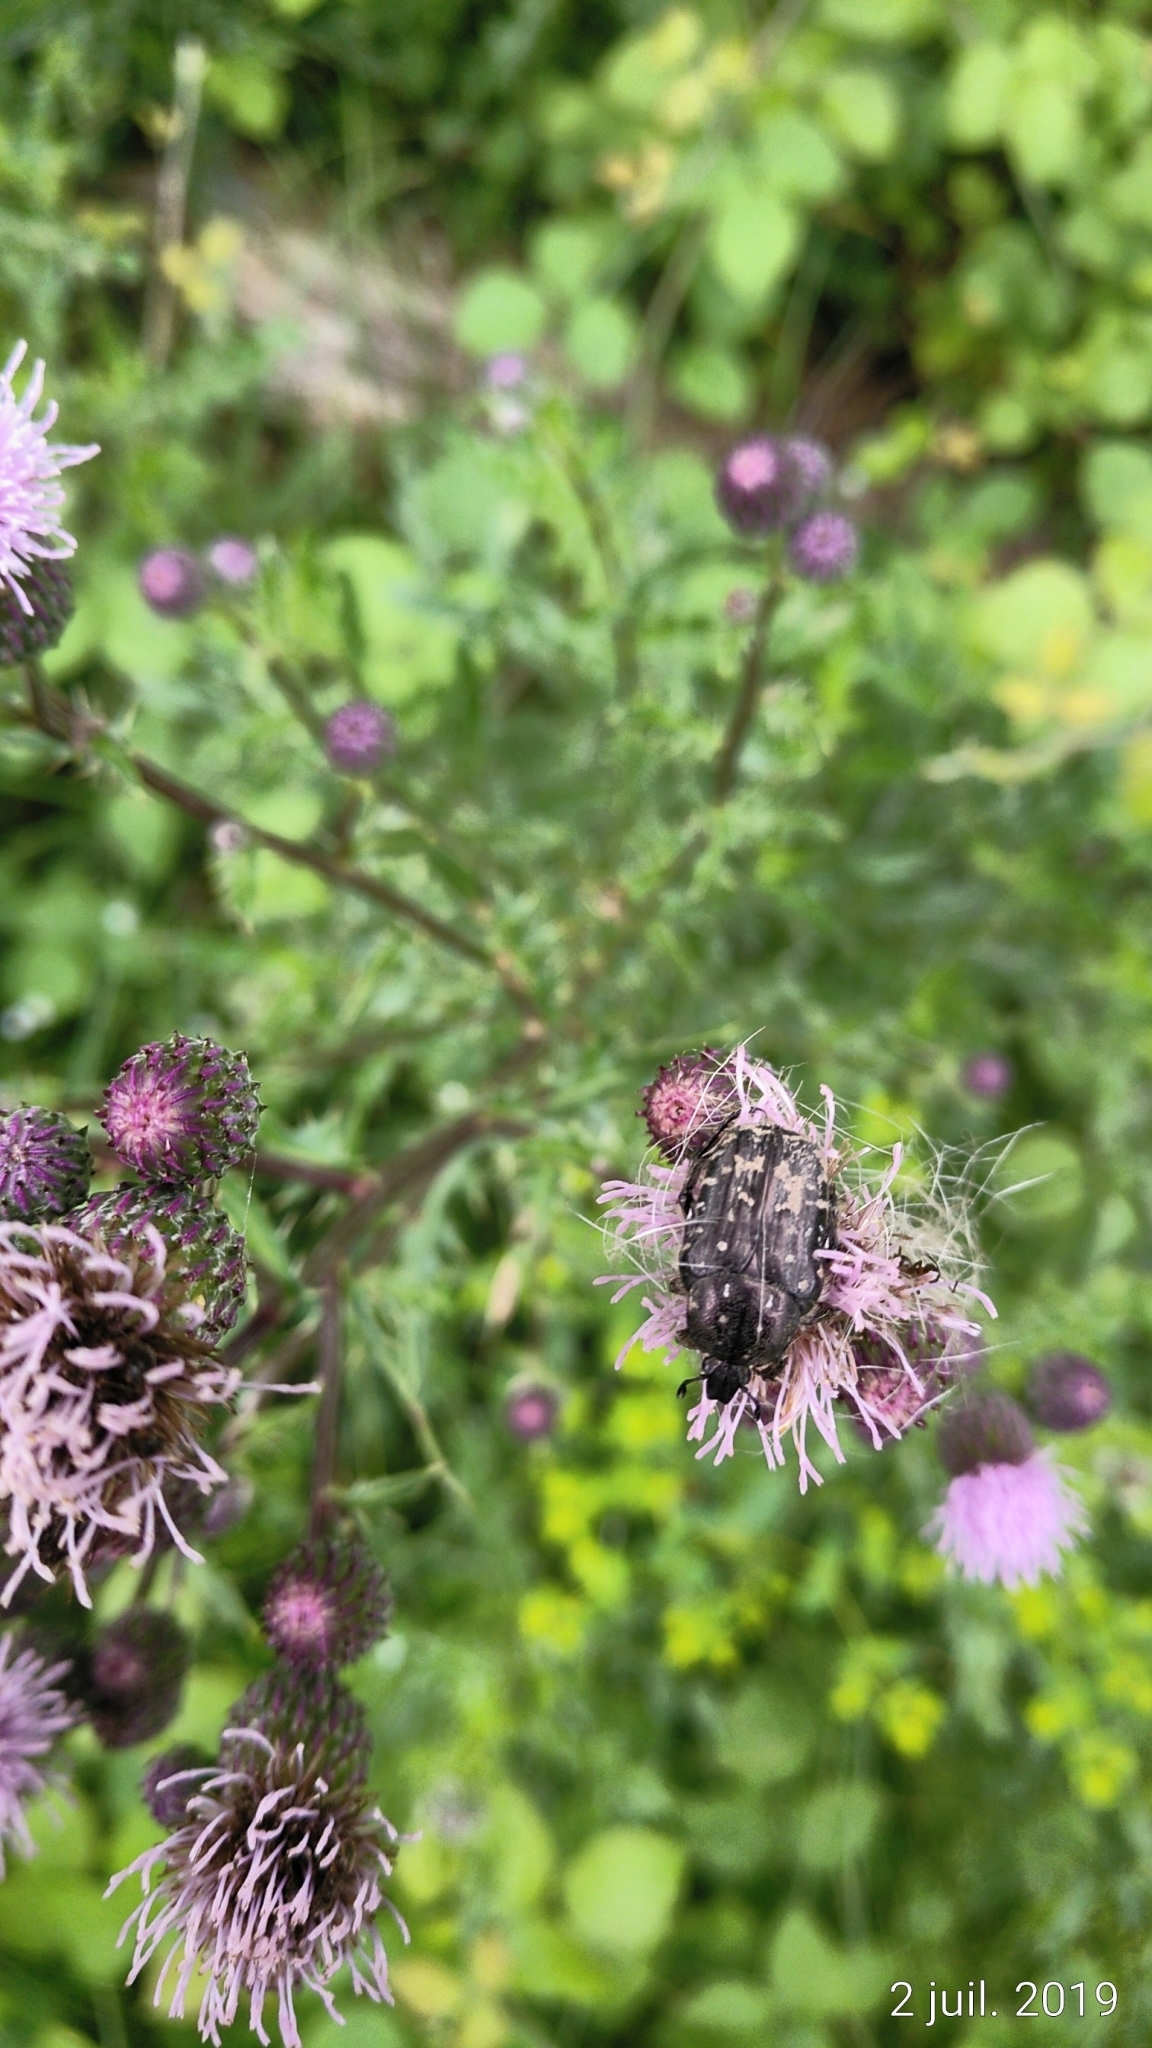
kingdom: Animalia
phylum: Arthropoda
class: Insecta
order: Coleoptera
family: Scarabaeidae
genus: Oxythyrea
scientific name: Oxythyrea funesta
